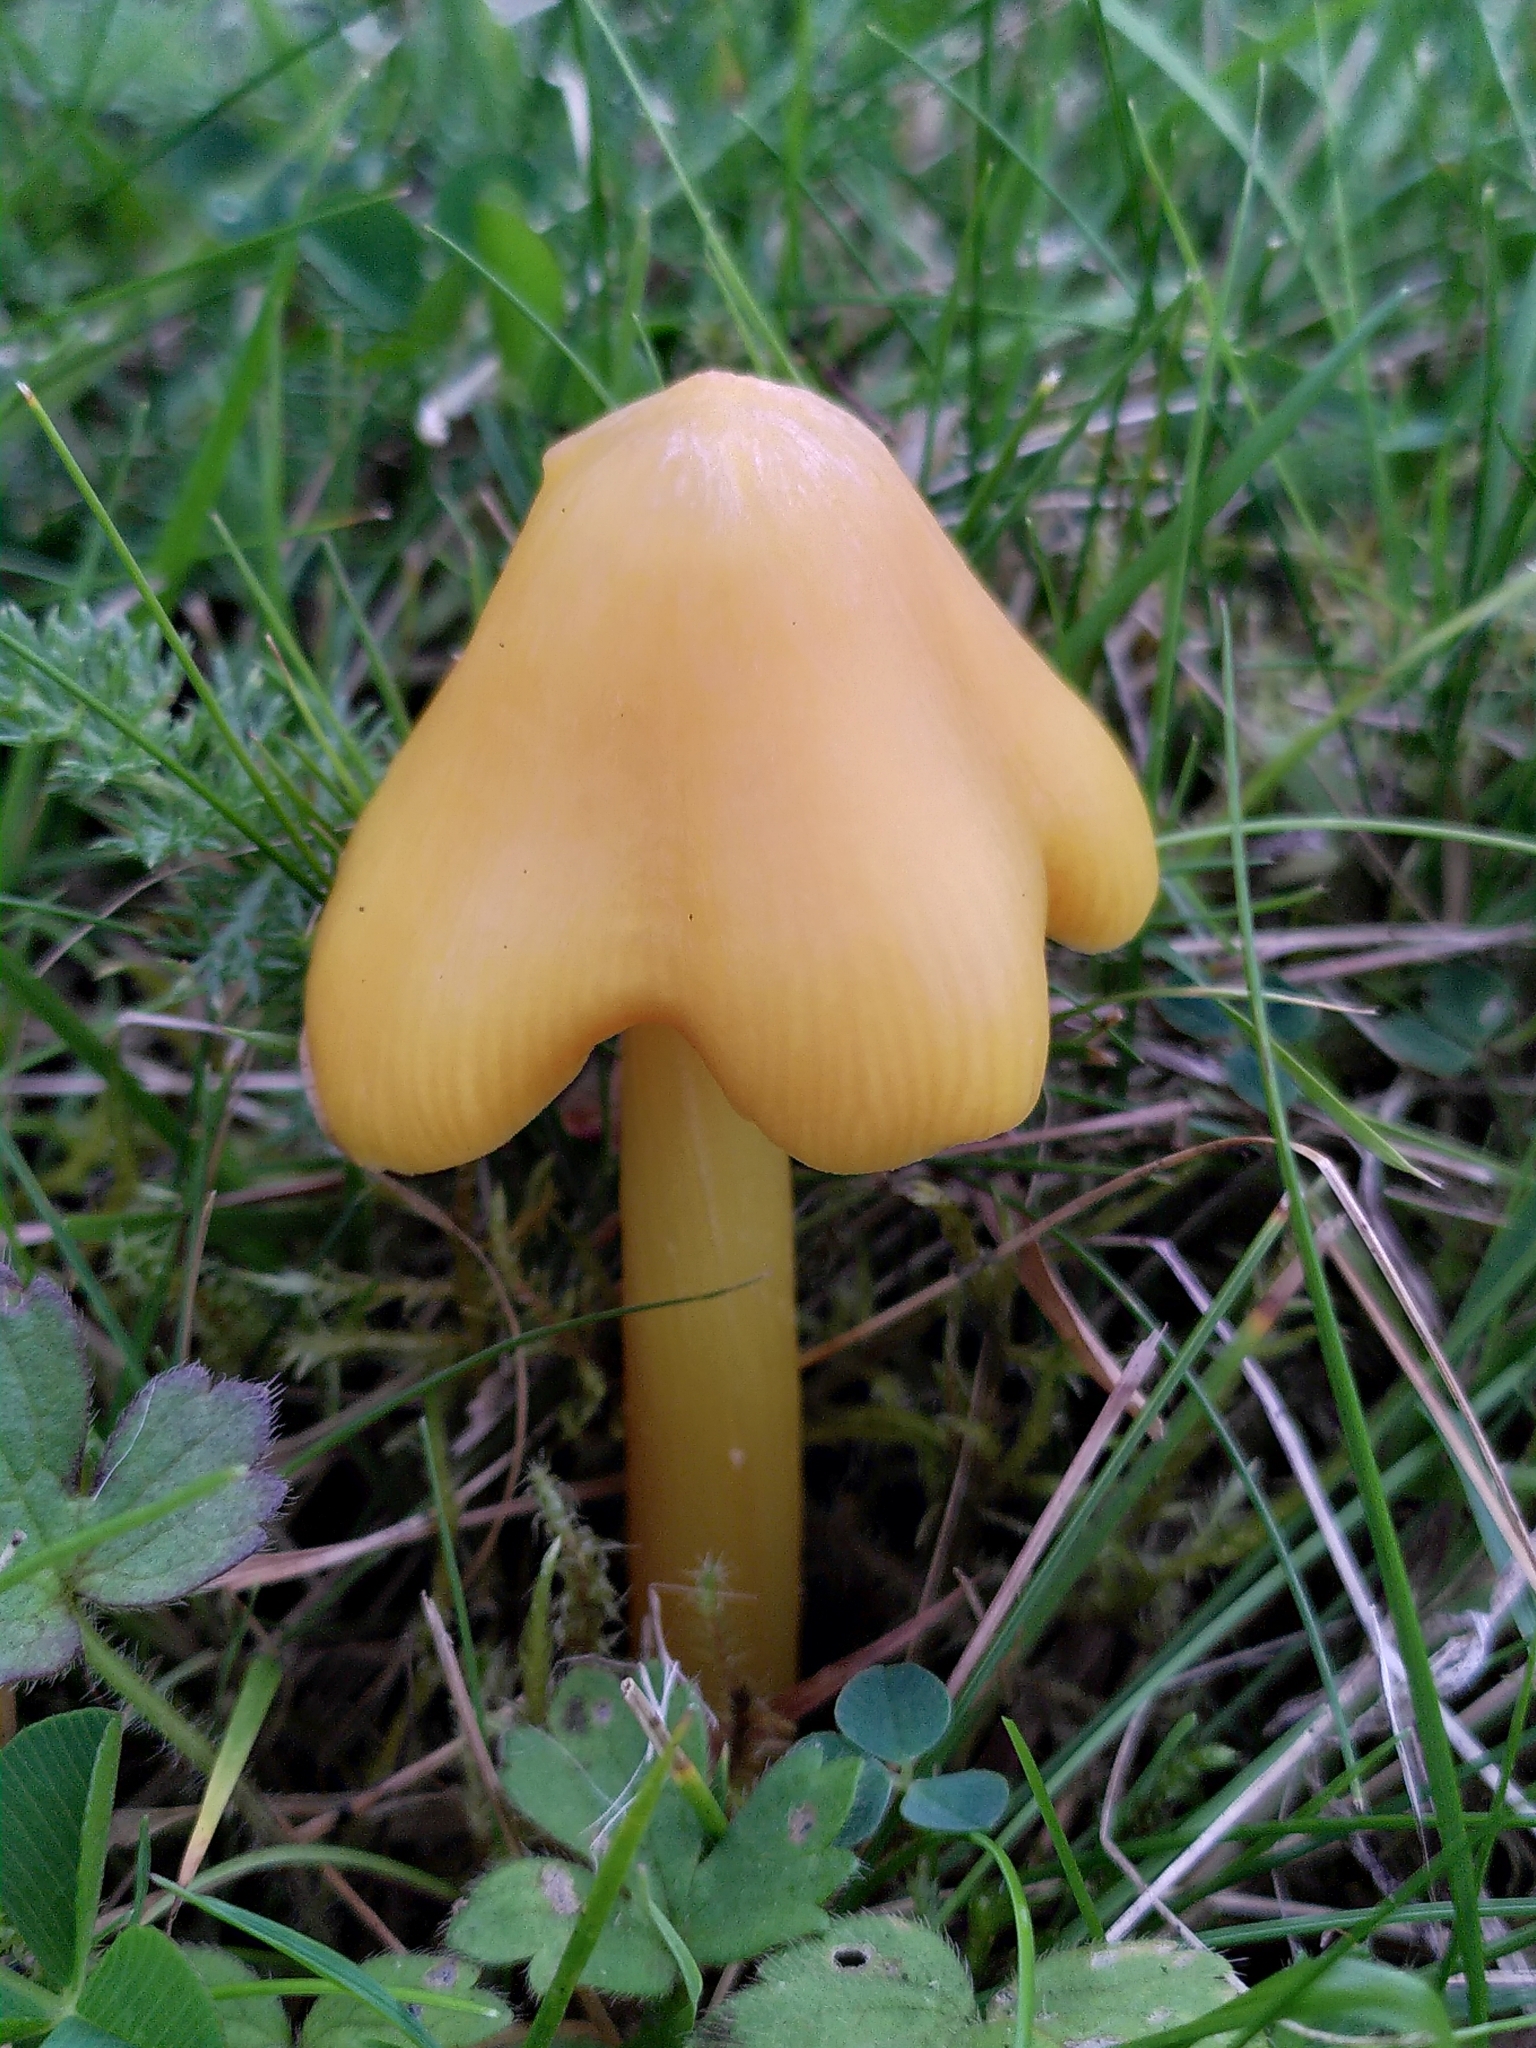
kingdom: Fungi
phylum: Basidiomycota
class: Agaricomycetes
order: Agaricales
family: Hygrophoraceae
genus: Hygrocybe
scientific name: Hygrocybe acutoconica
